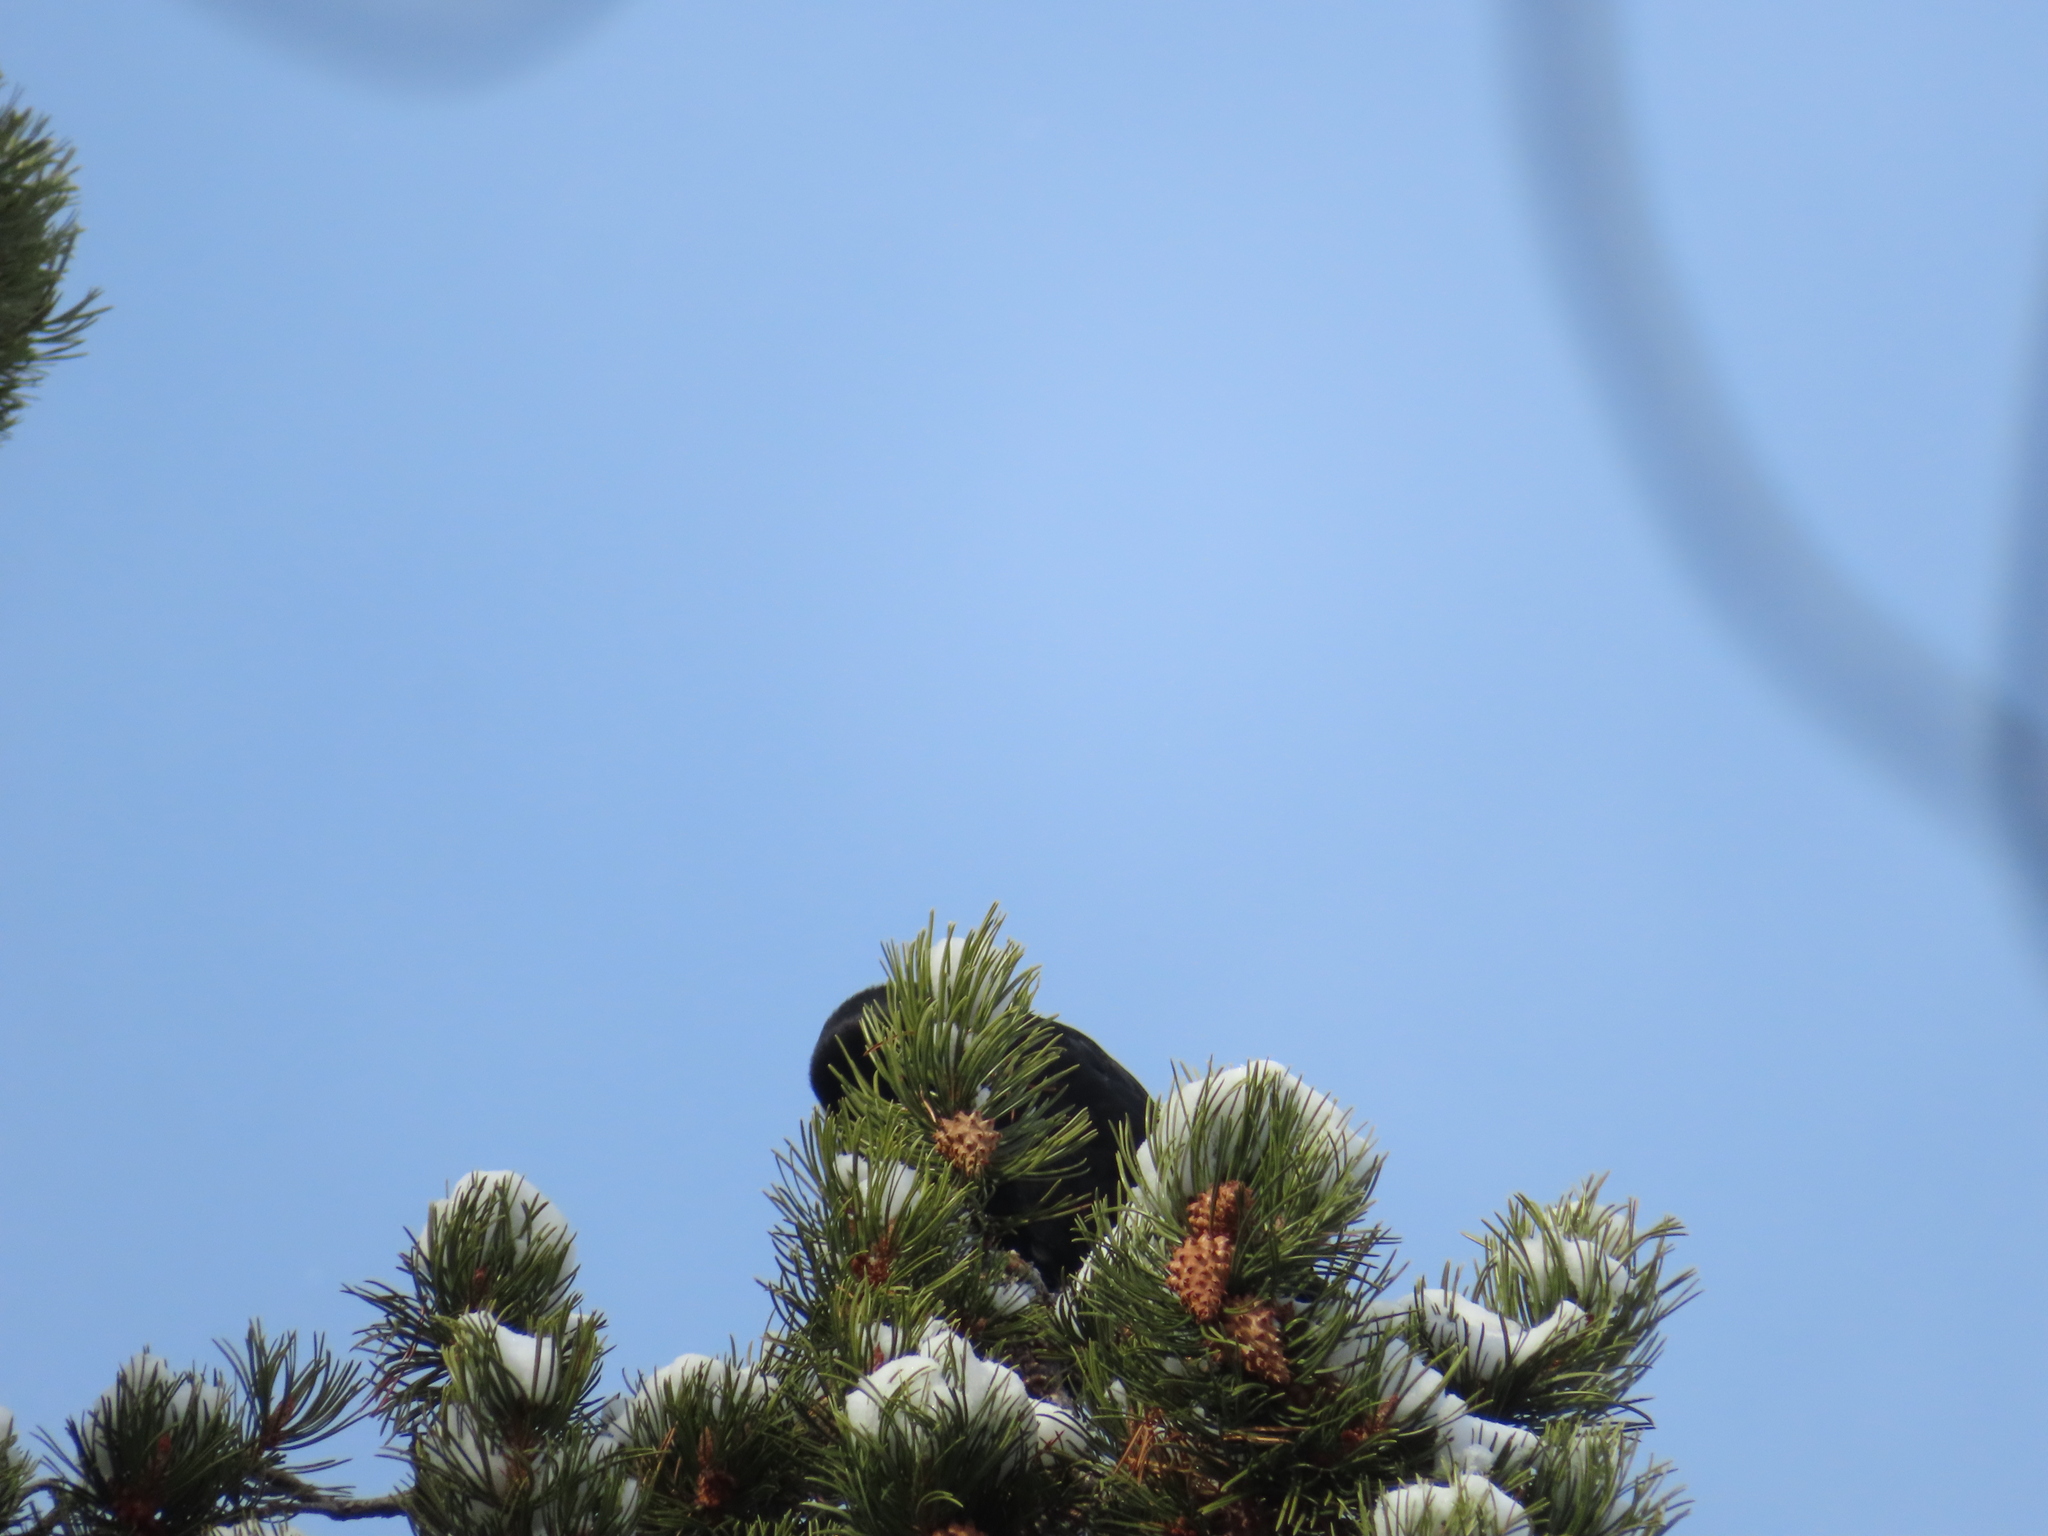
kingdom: Plantae
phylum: Tracheophyta
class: Pinopsida
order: Pinales
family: Pinaceae
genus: Pinus
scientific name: Pinus contorta
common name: Lodgepole pine
